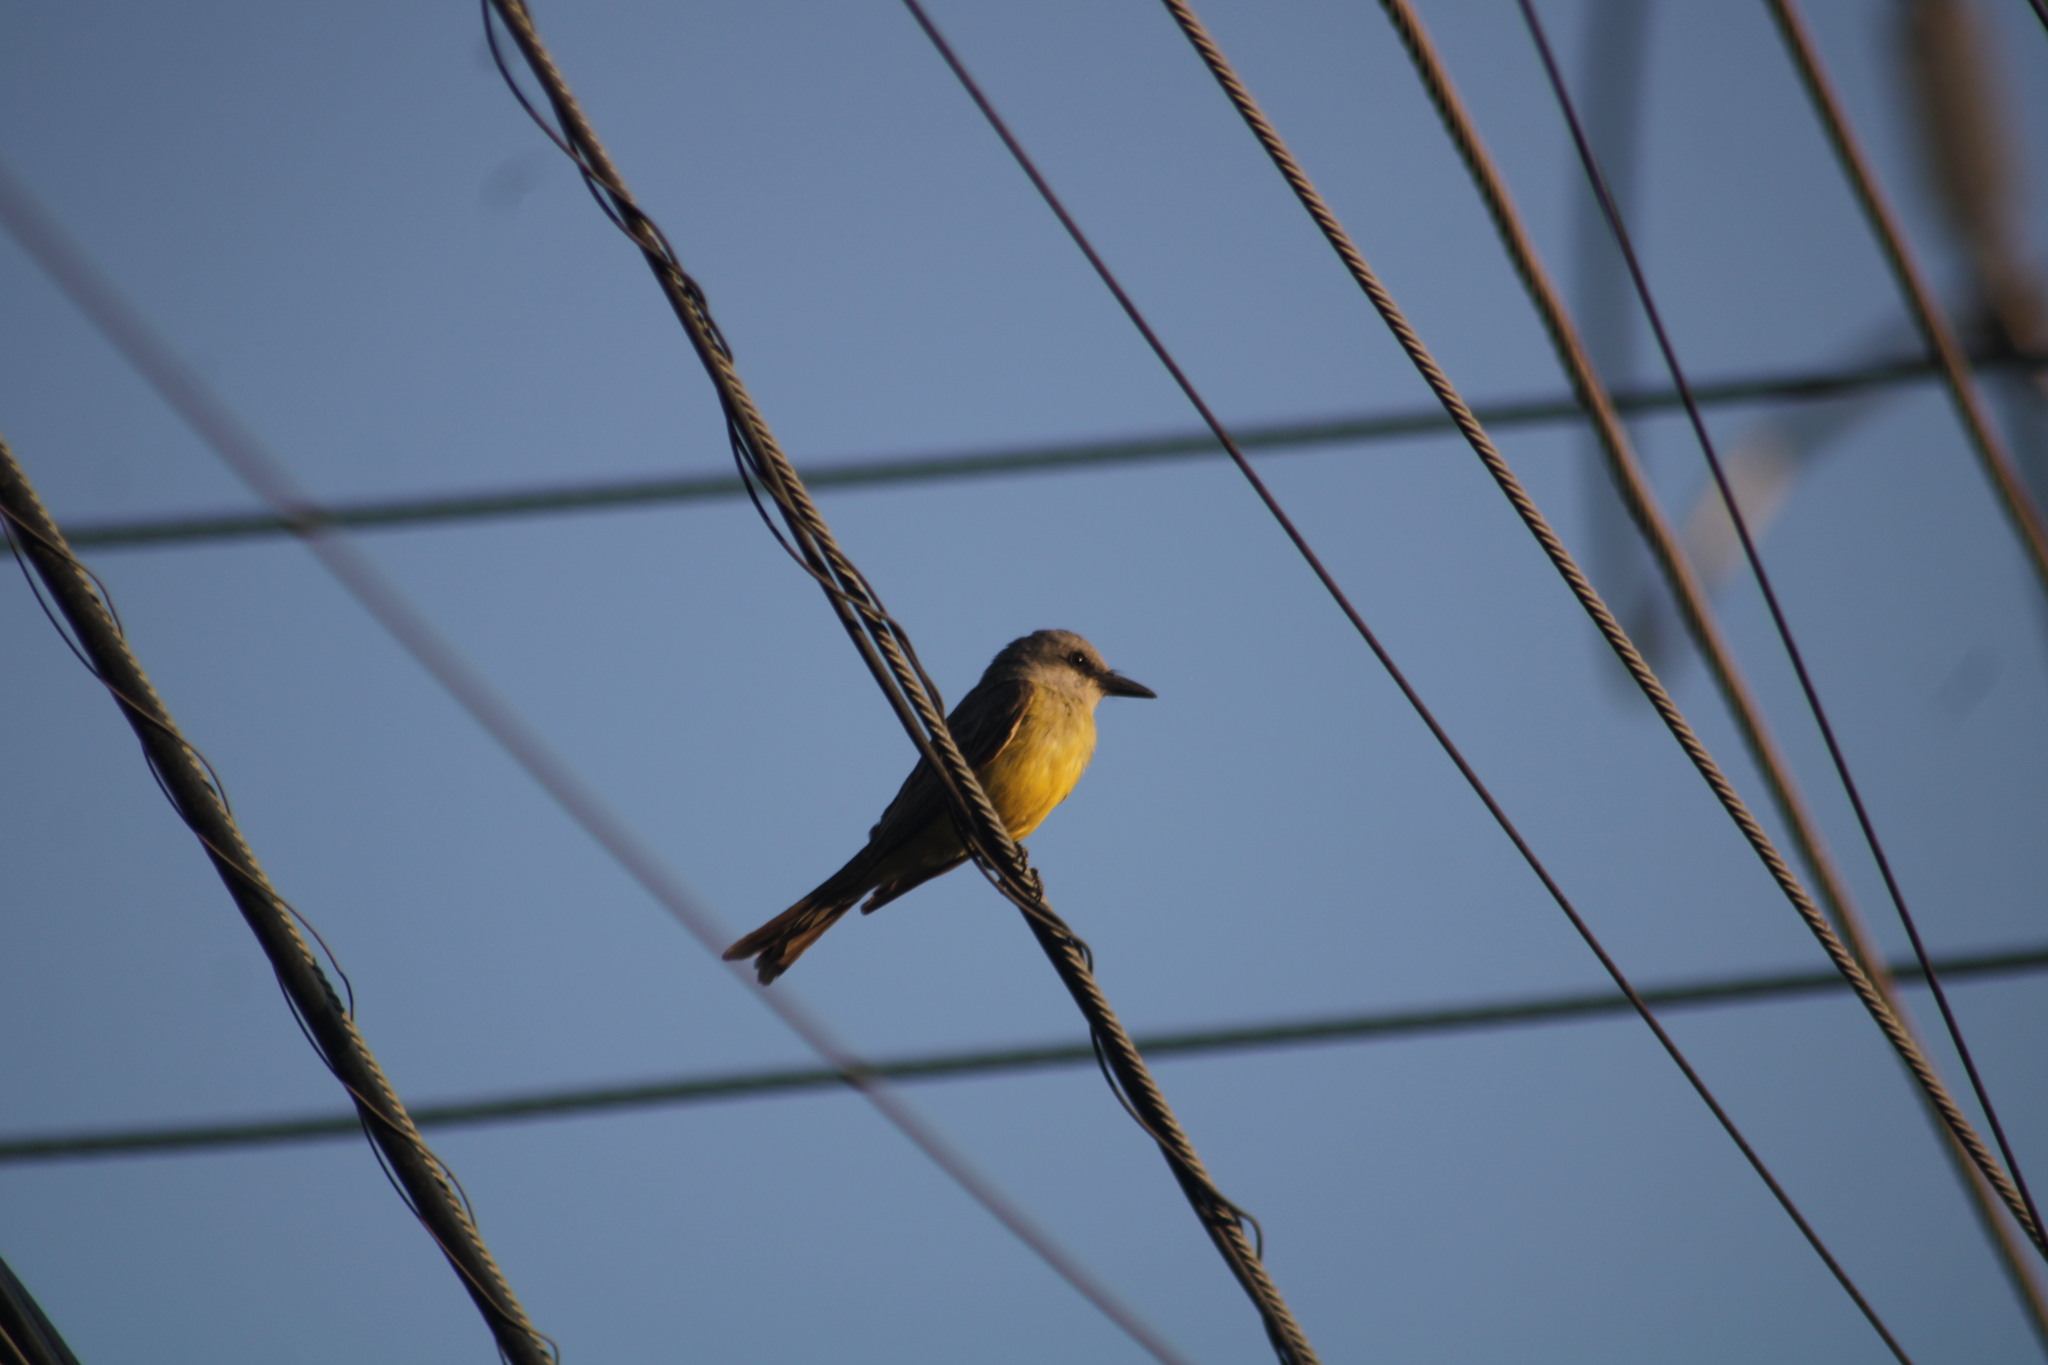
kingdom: Animalia
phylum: Chordata
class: Aves
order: Passeriformes
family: Tyrannidae
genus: Tyrannus
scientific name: Tyrannus melancholicus
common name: Tropical kingbird
